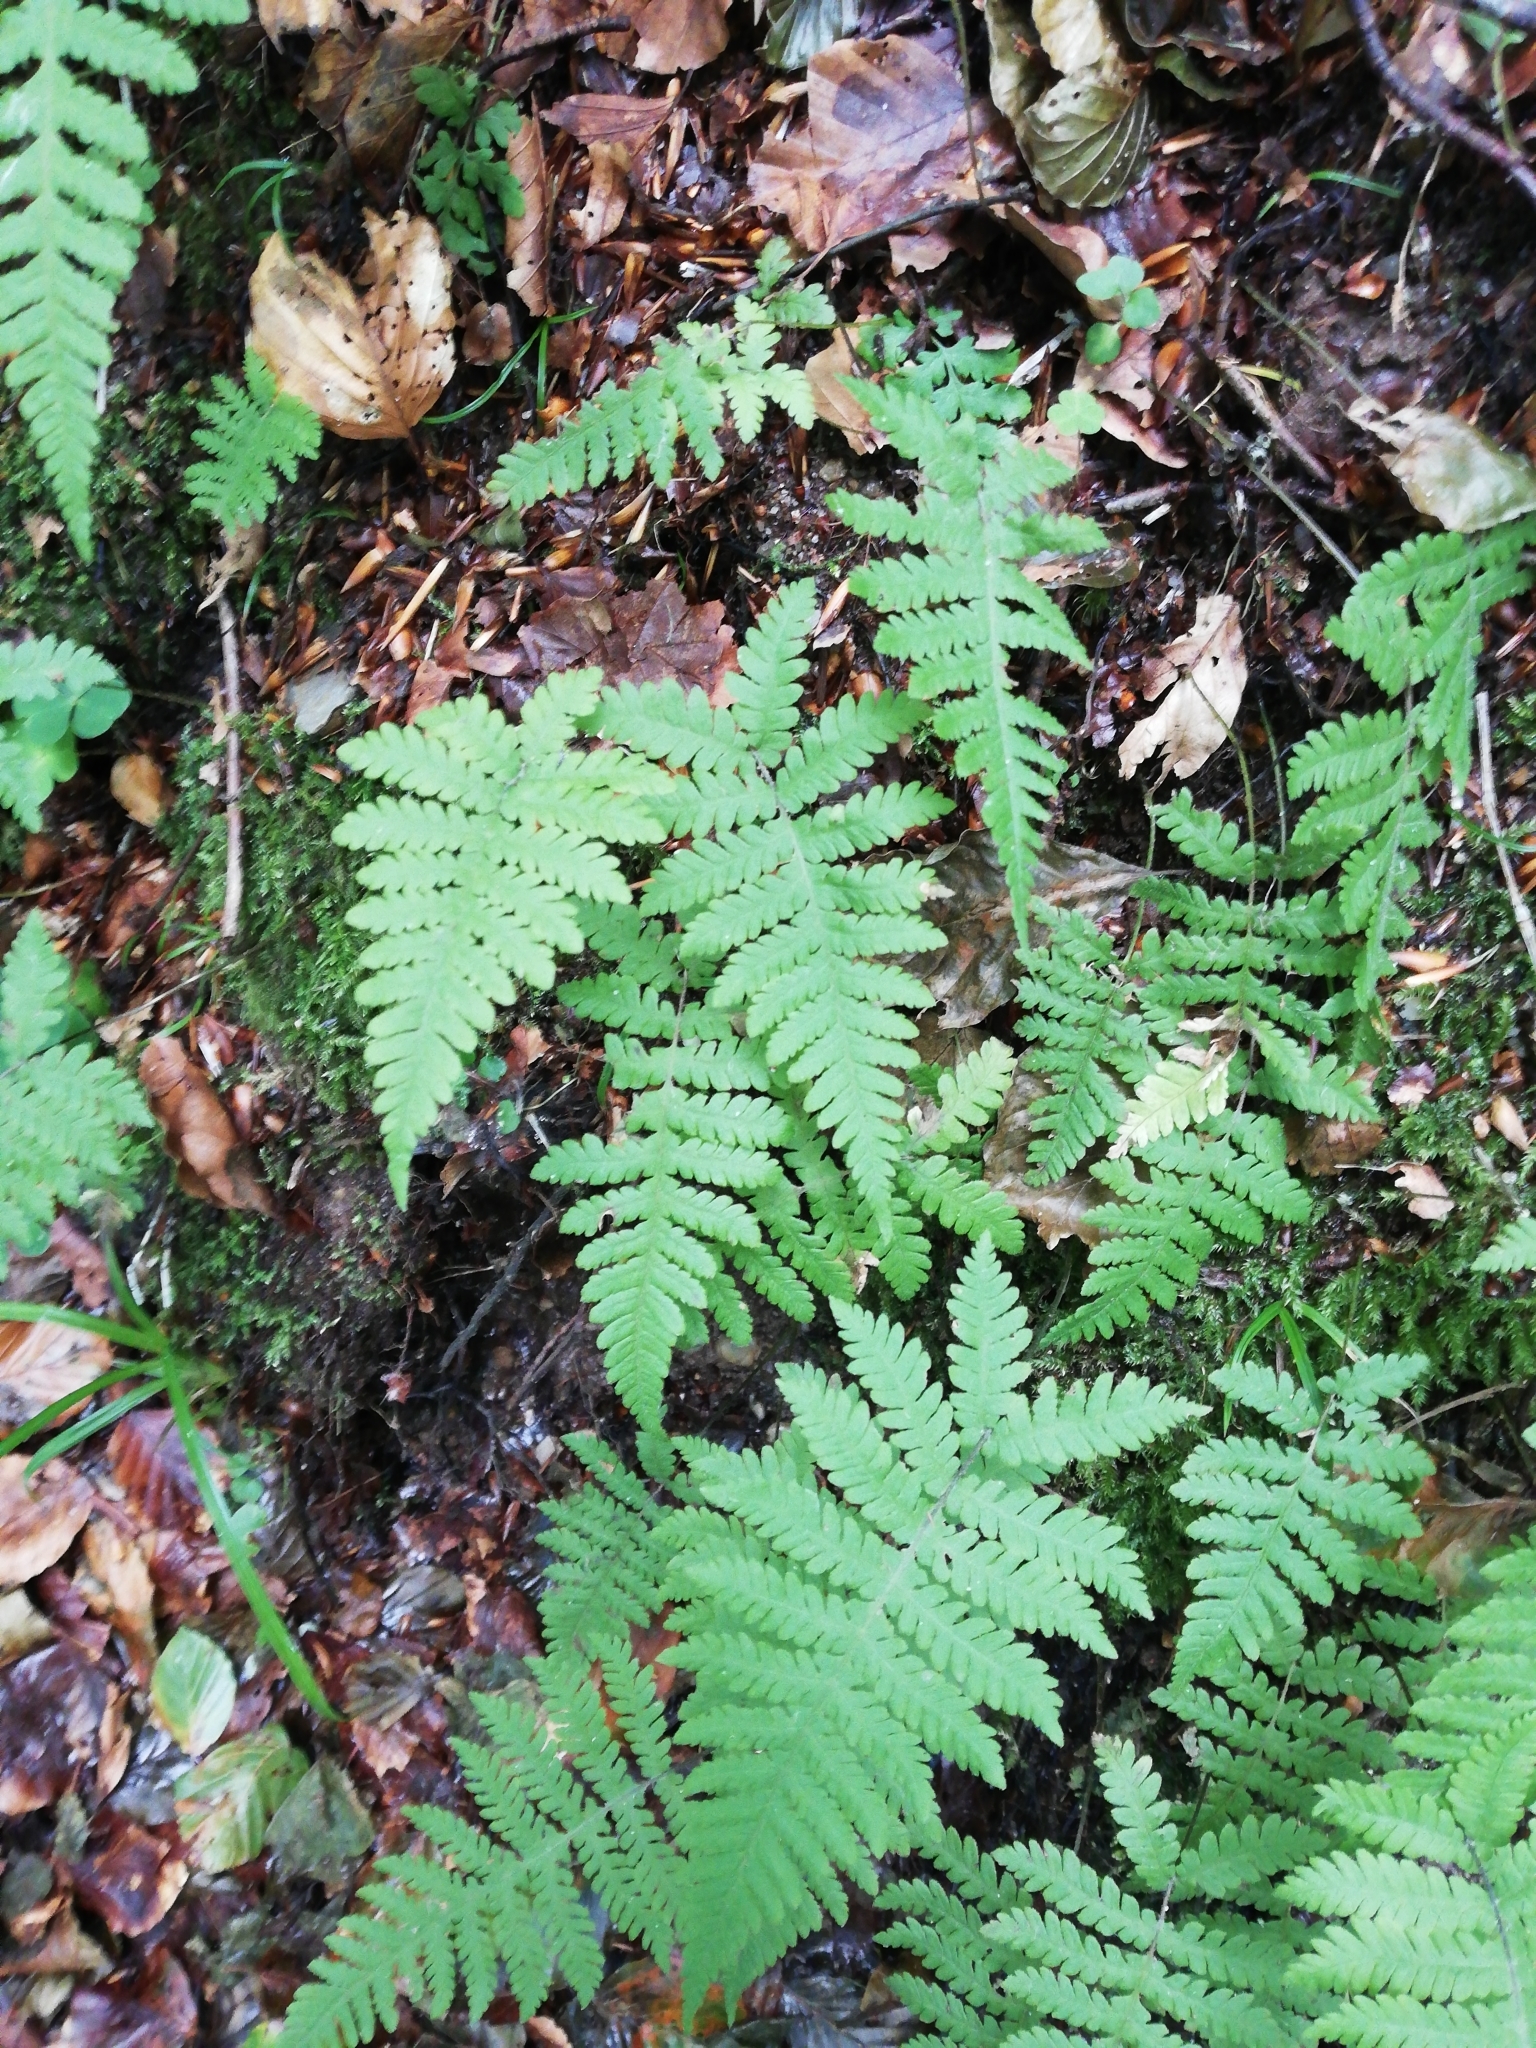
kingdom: Plantae
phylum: Tracheophyta
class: Polypodiopsida
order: Polypodiales
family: Thelypteridaceae
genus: Phegopteris
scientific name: Phegopteris connectilis
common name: Beech fern
